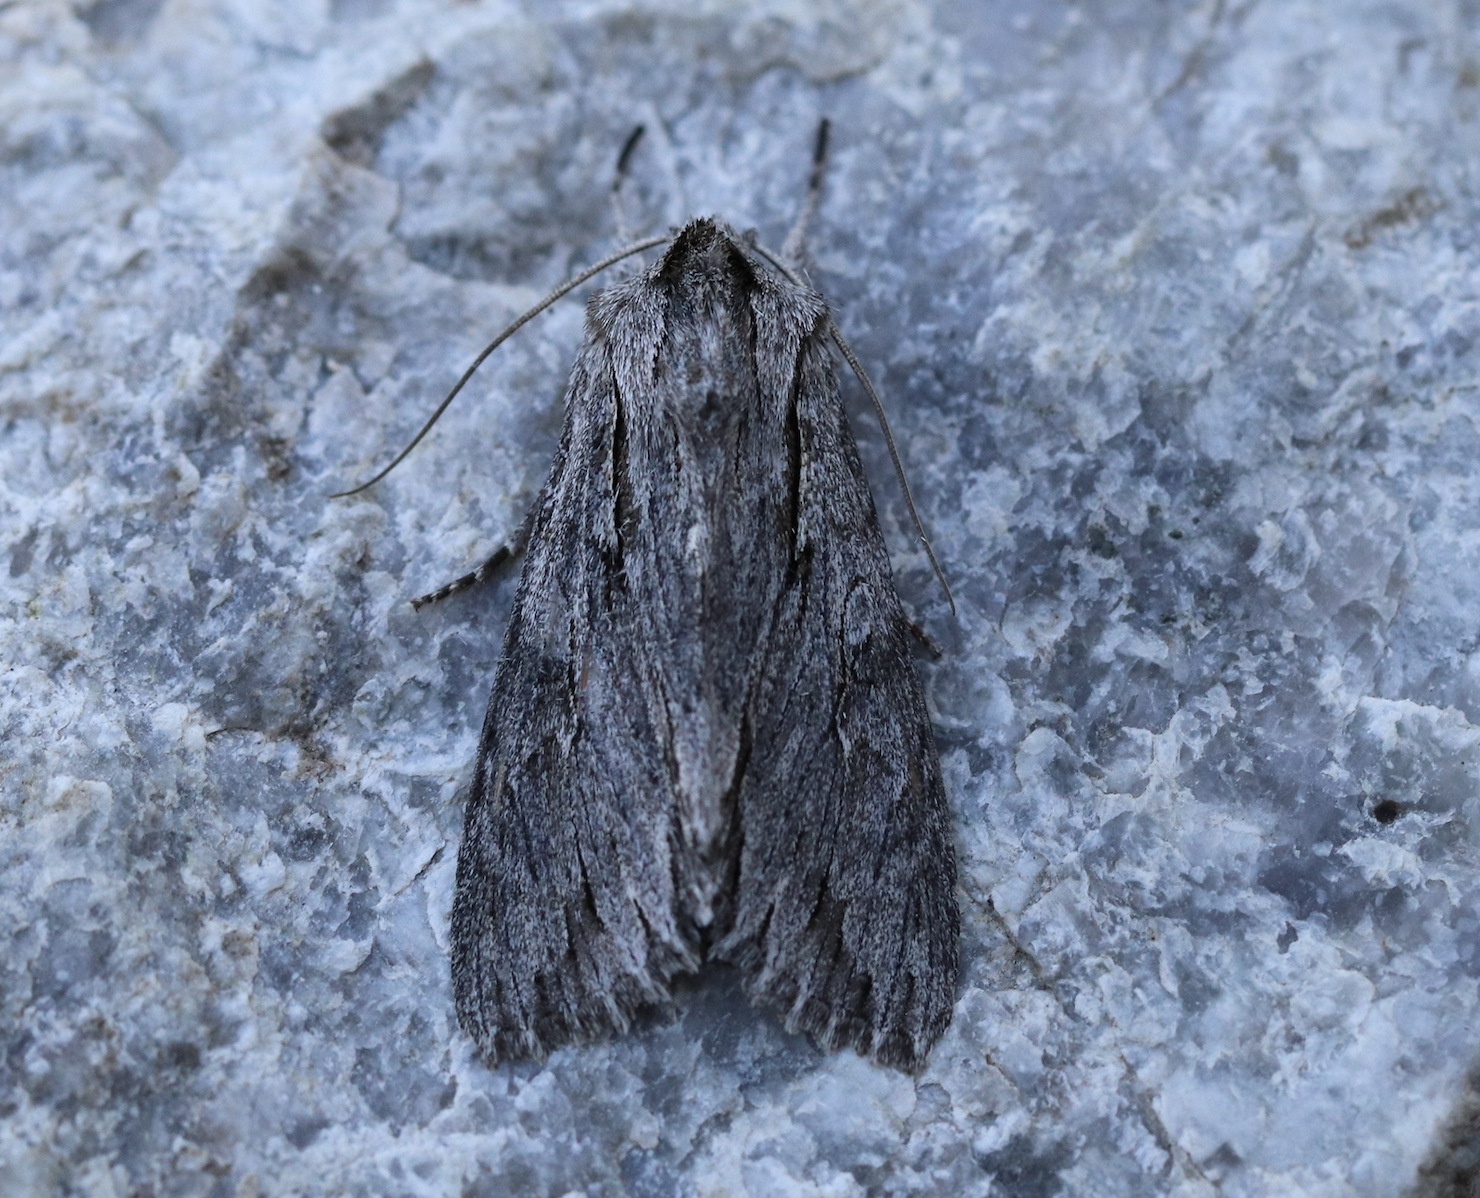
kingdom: Animalia
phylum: Arthropoda
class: Insecta
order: Lepidoptera
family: Noctuidae
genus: Auchmis
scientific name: Auchmis detersa
